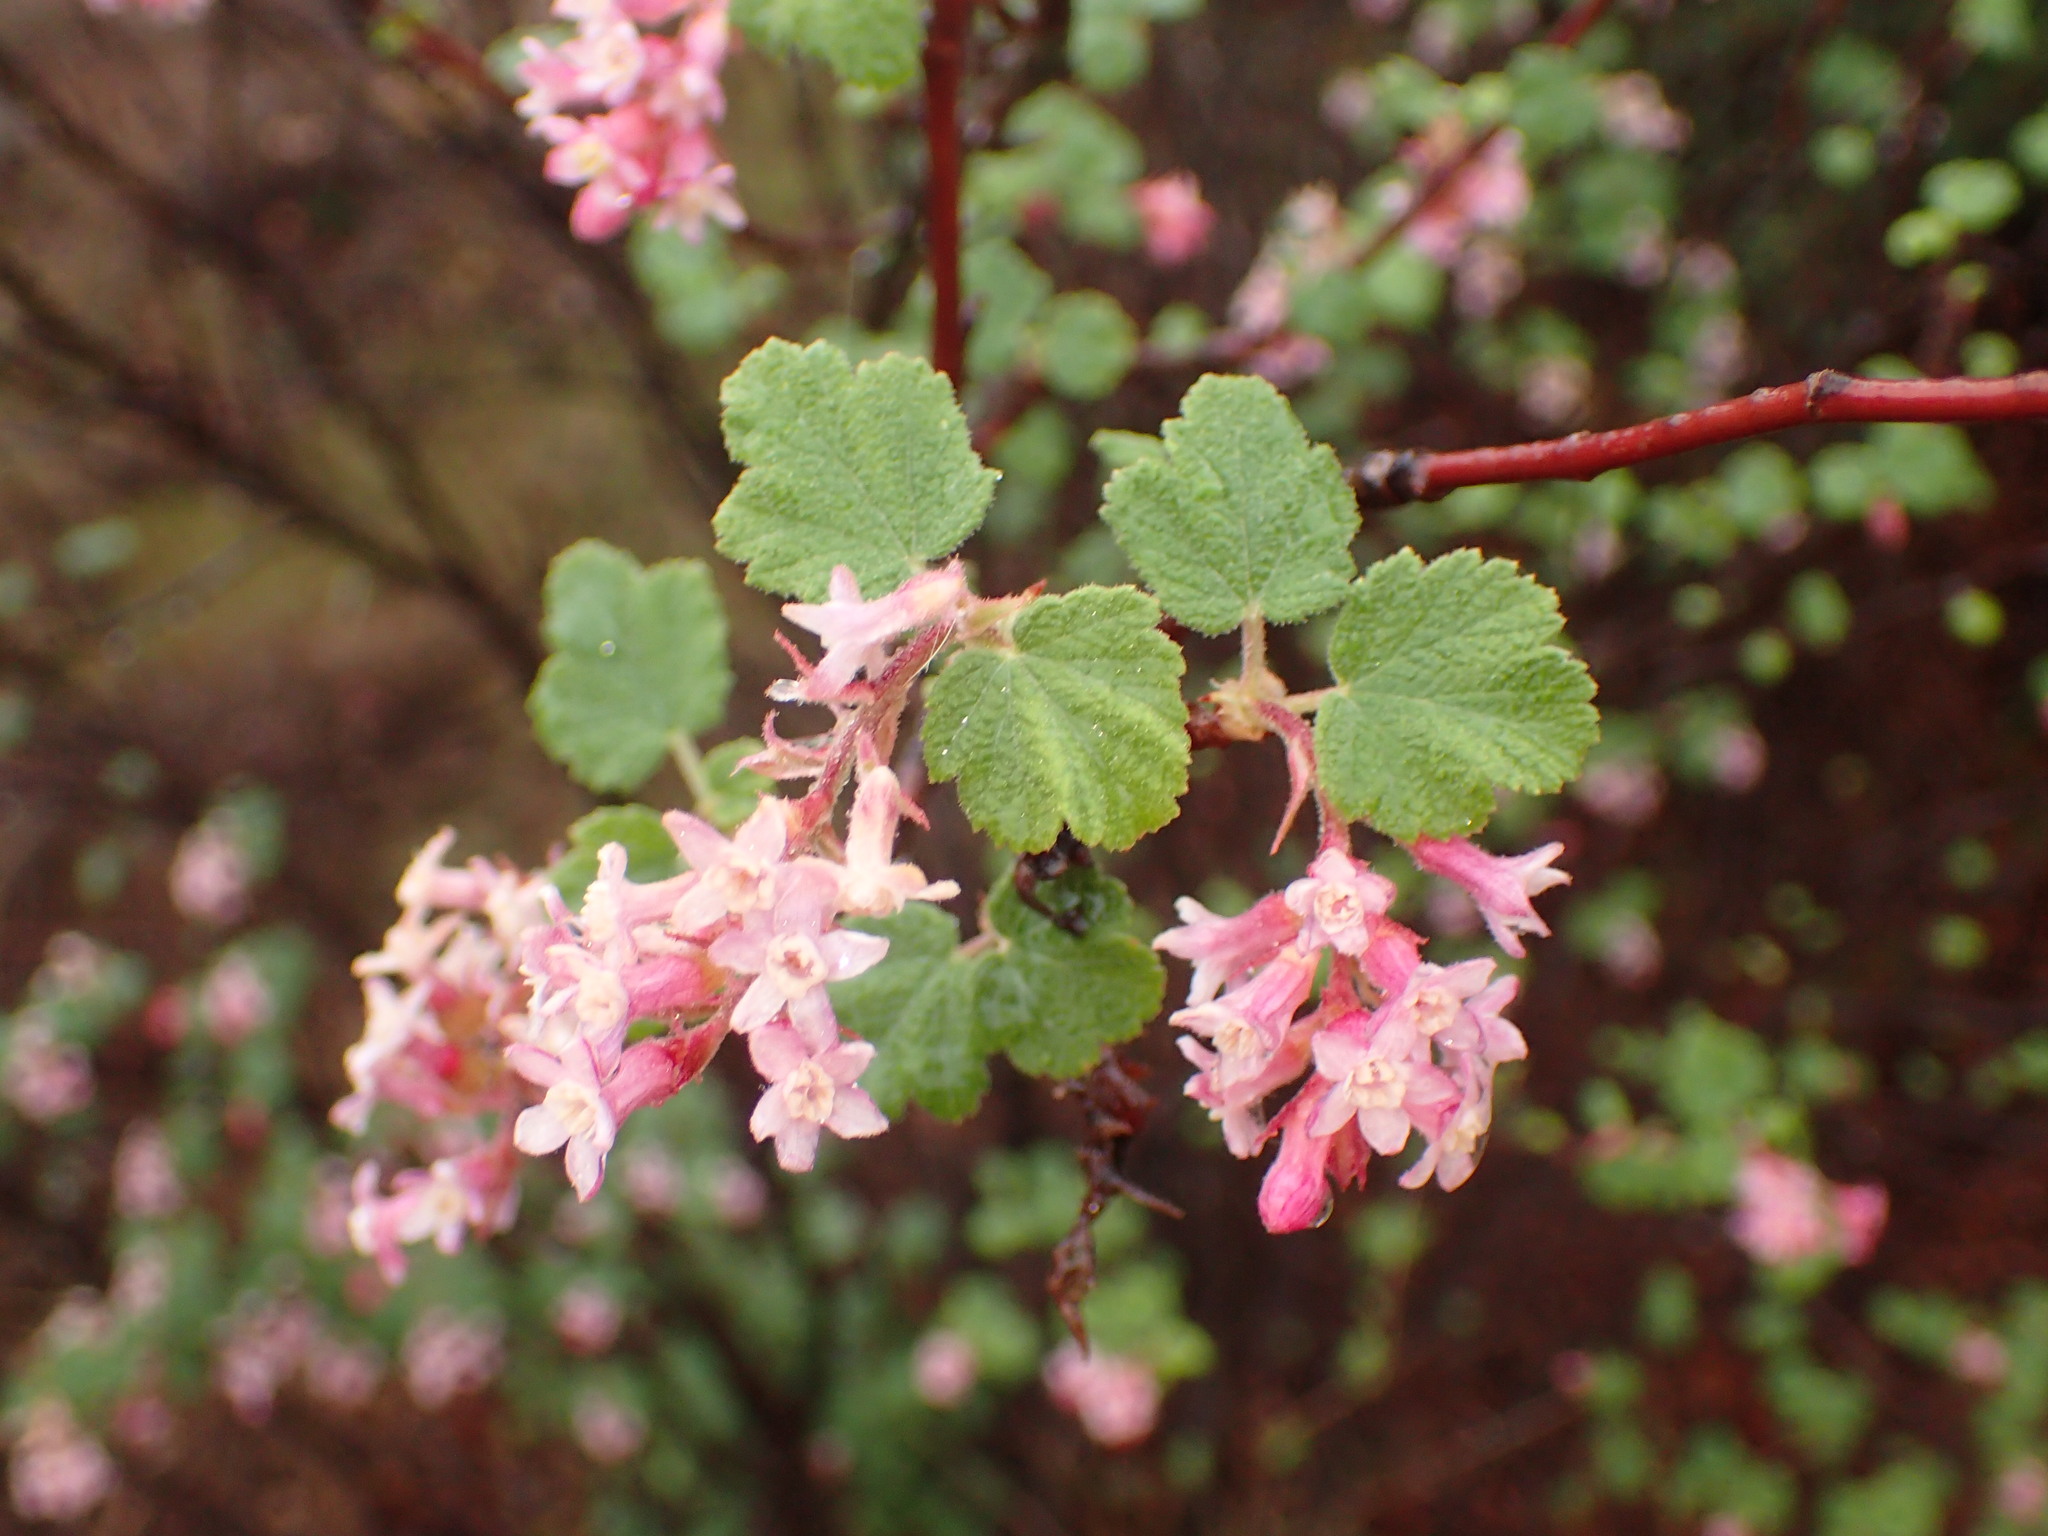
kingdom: Plantae
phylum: Tracheophyta
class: Magnoliopsida
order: Saxifragales
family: Grossulariaceae
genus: Ribes
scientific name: Ribes malvaceum
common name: Chaparral currant
